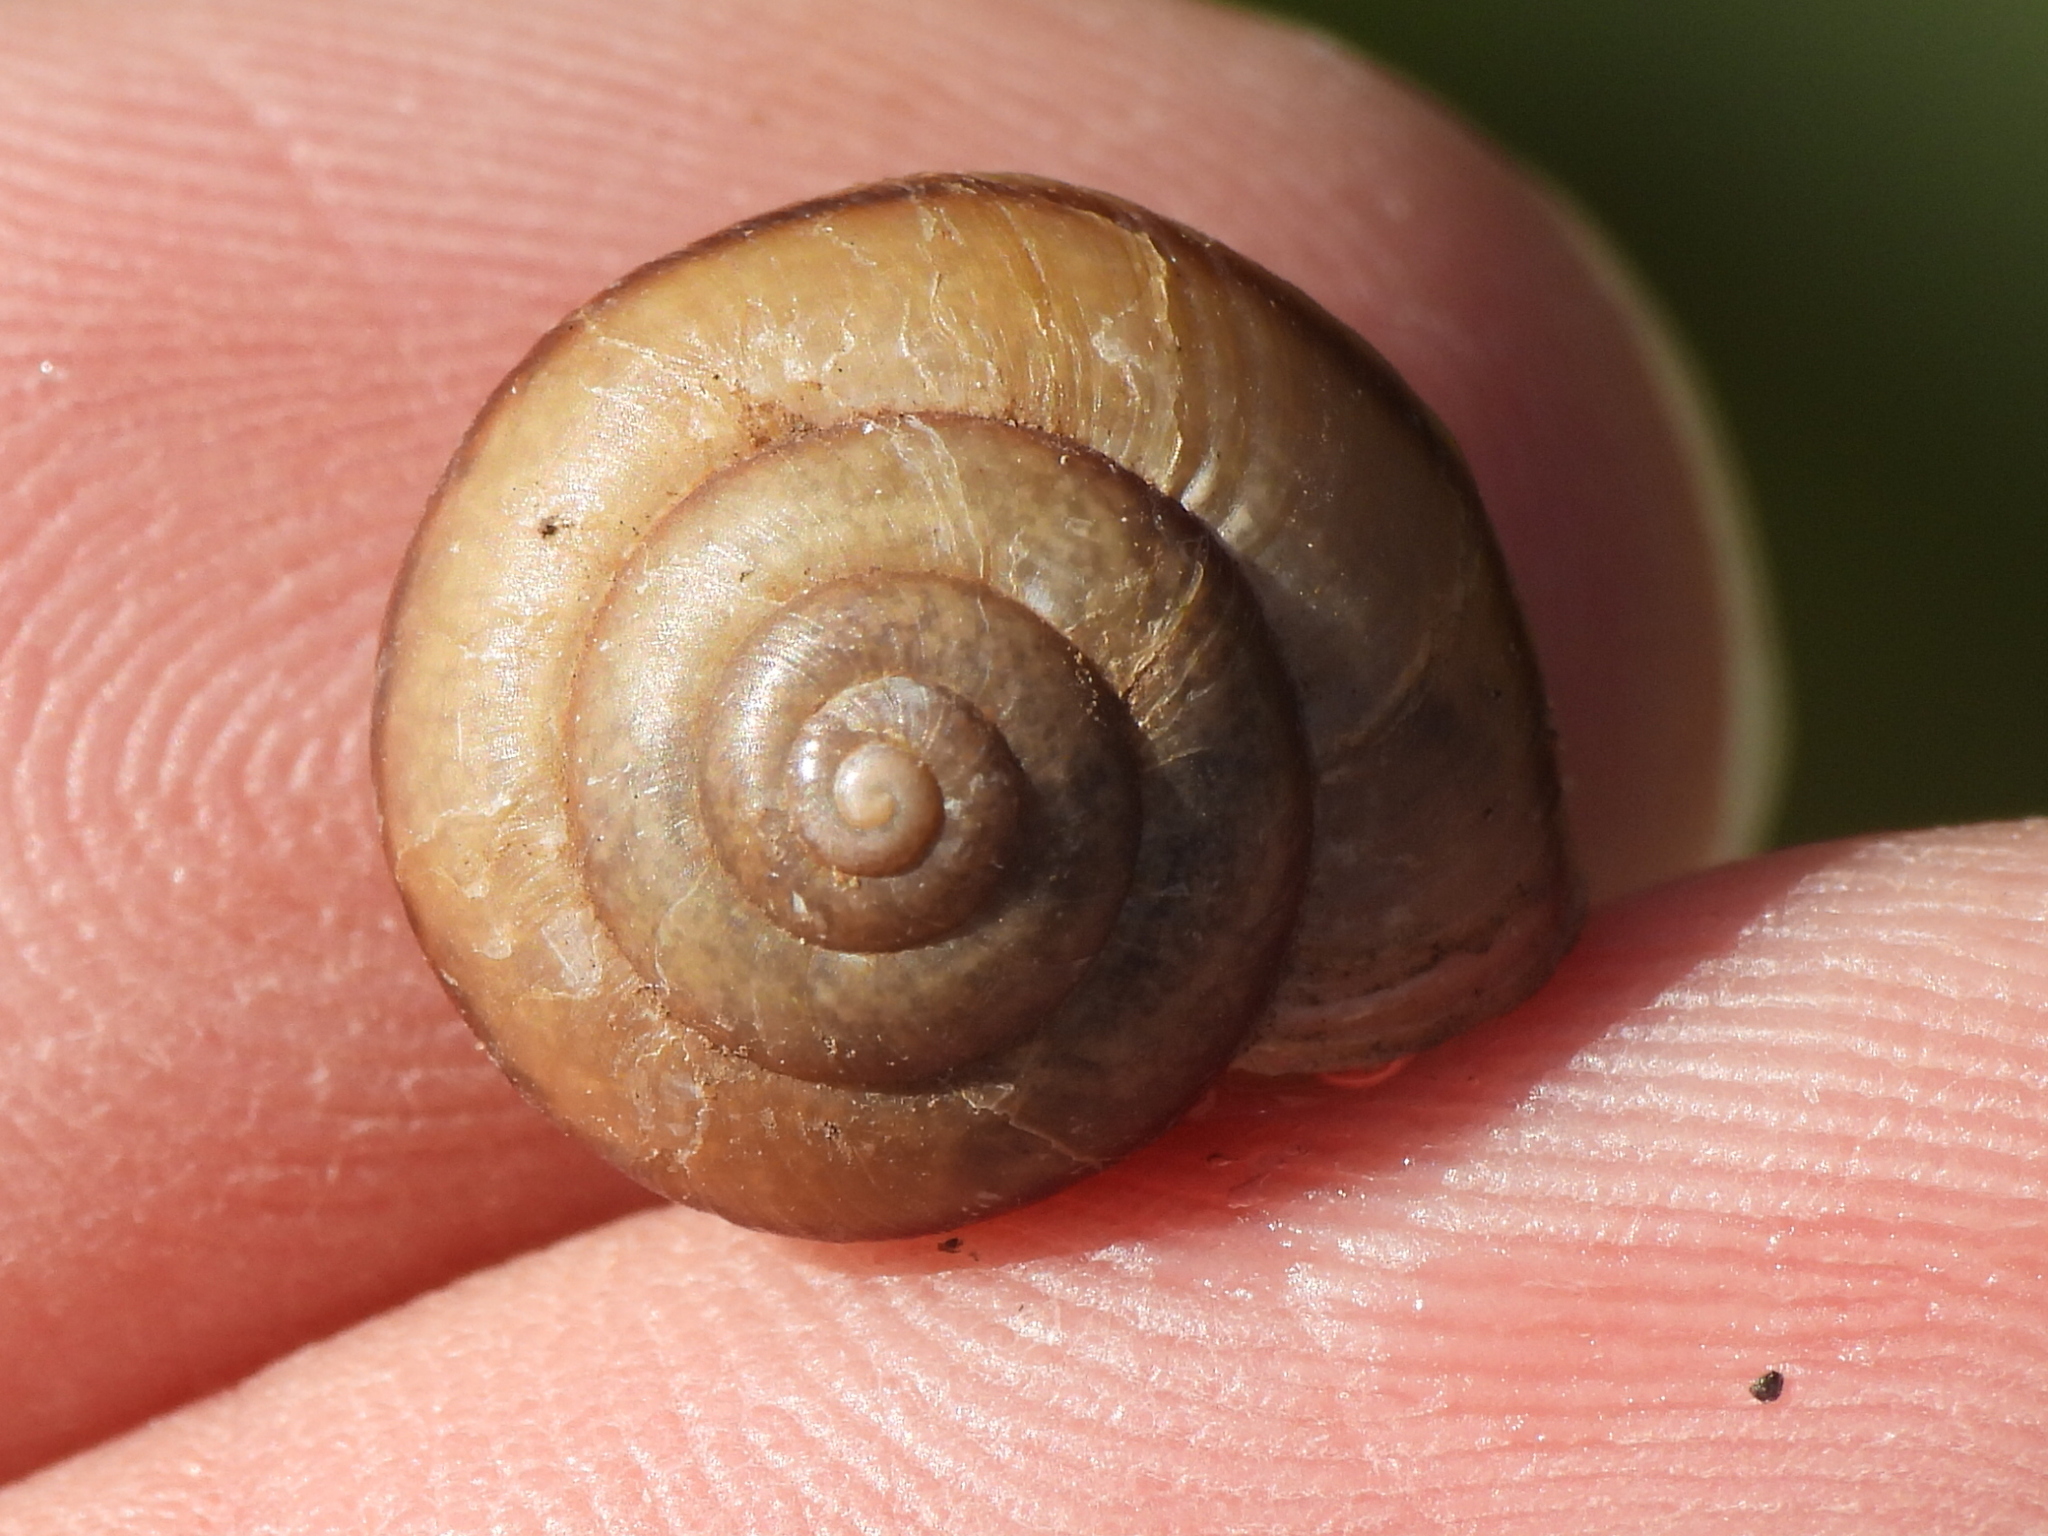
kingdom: Animalia
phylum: Mollusca
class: Gastropoda
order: Stylommatophora
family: Camaenidae
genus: Bradybaena
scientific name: Bradybaena similaris
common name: Asian trampsnail
